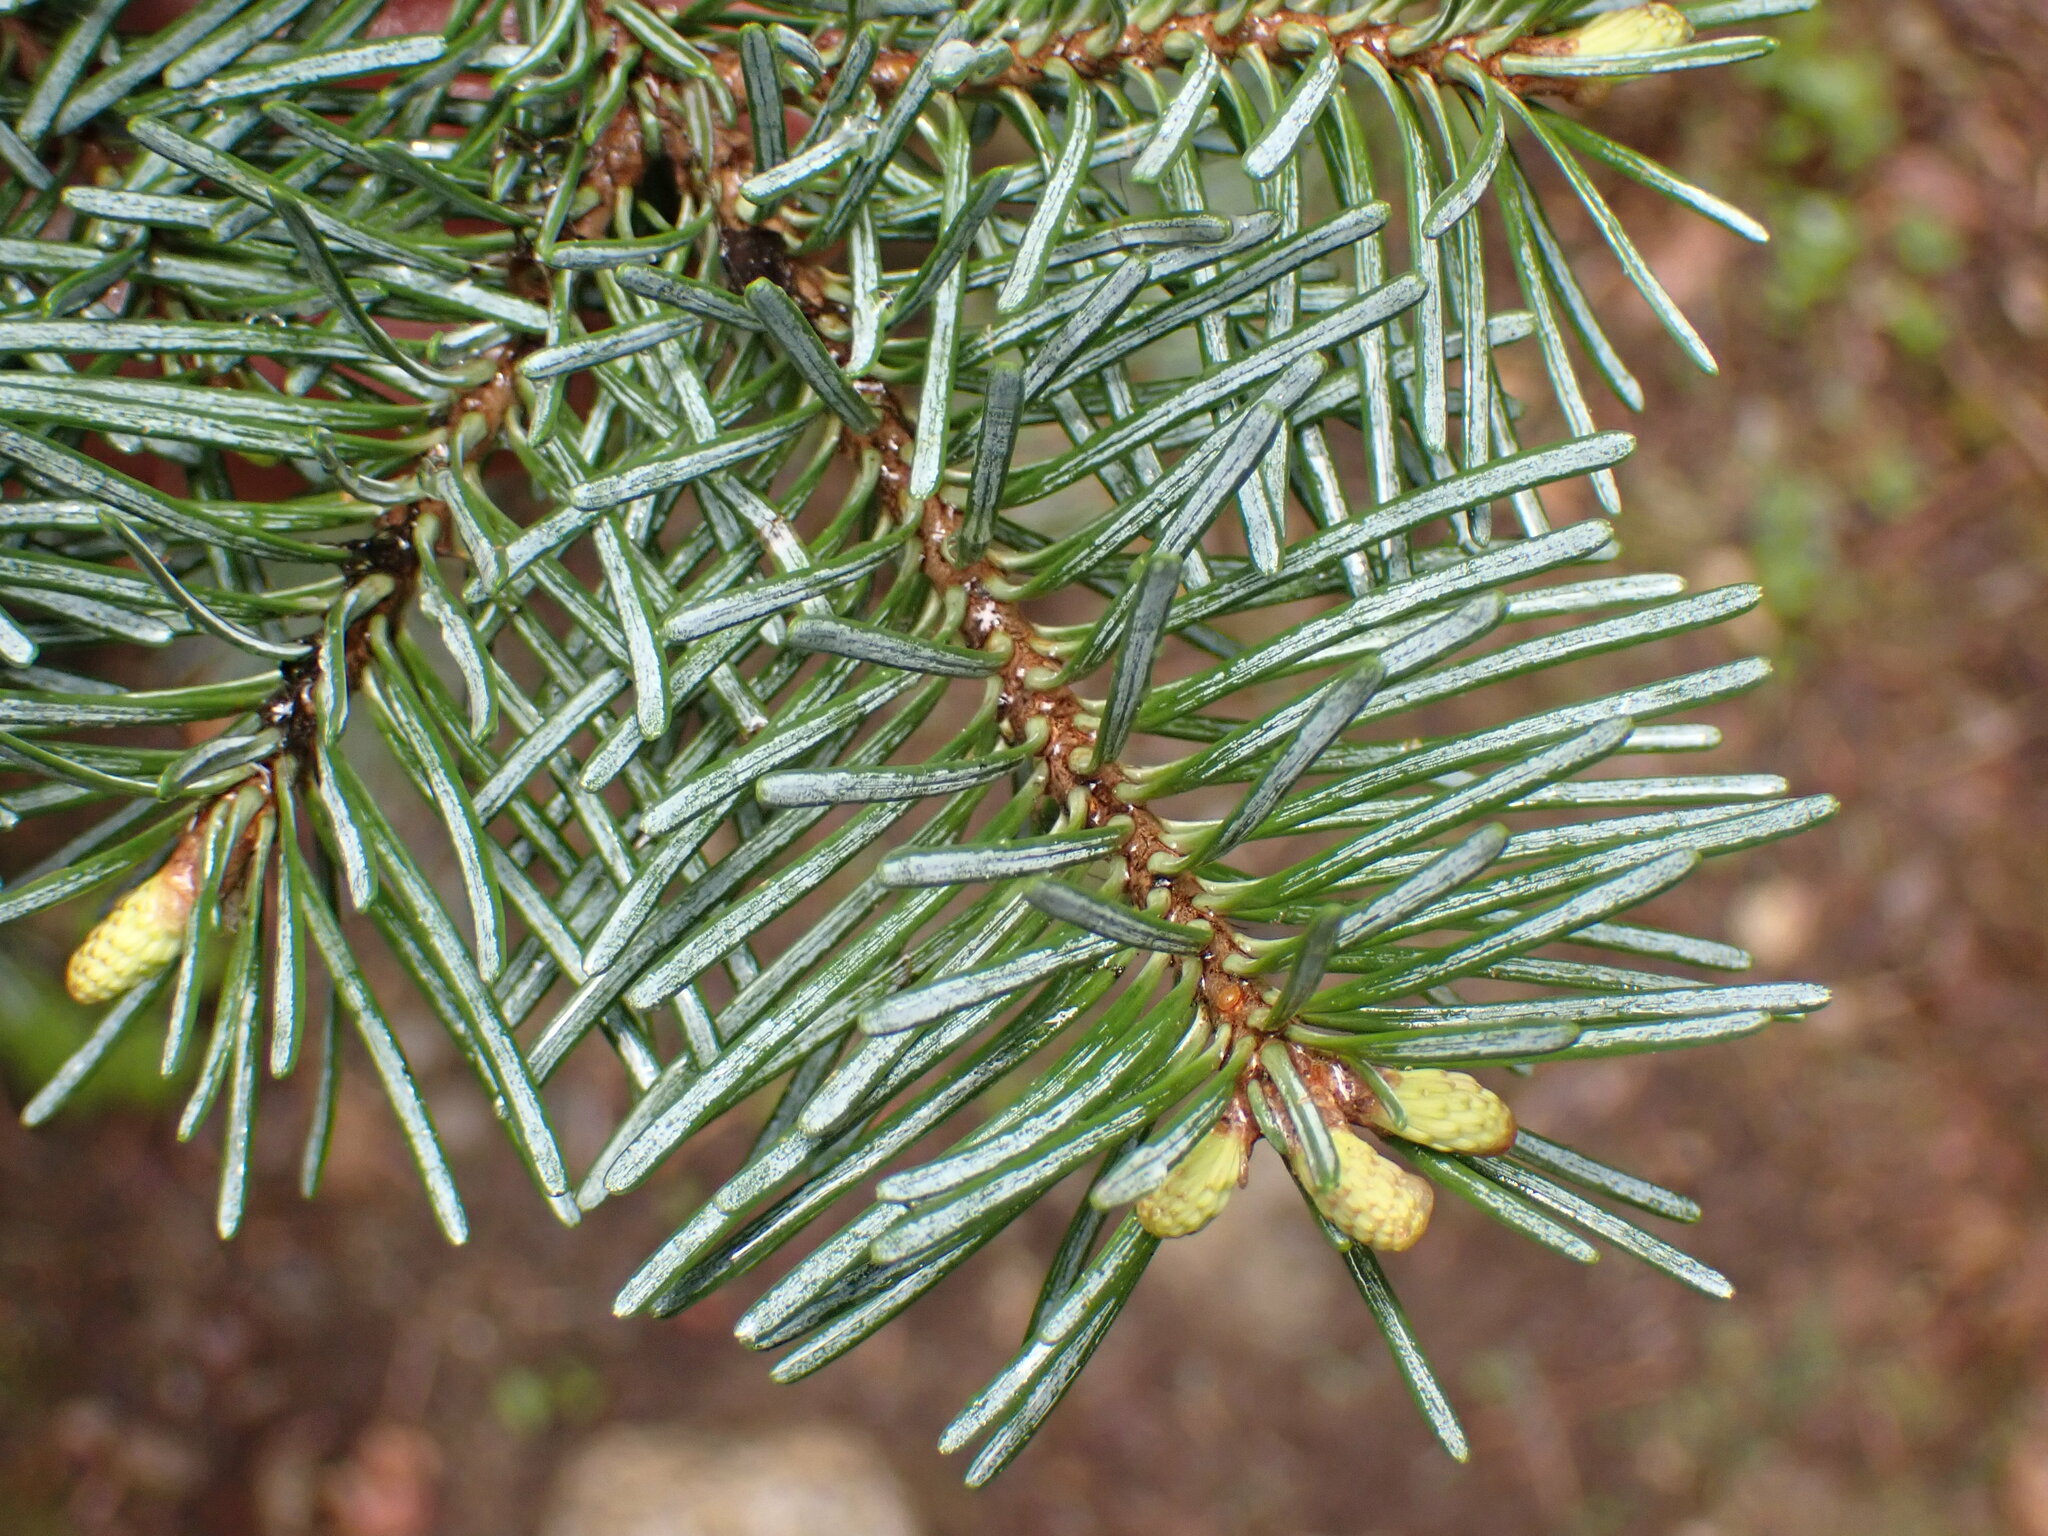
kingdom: Plantae
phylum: Tracheophyta
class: Pinopsida
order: Pinales
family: Pinaceae
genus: Abies
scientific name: Abies lasiocarpa
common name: Subalpine fir
